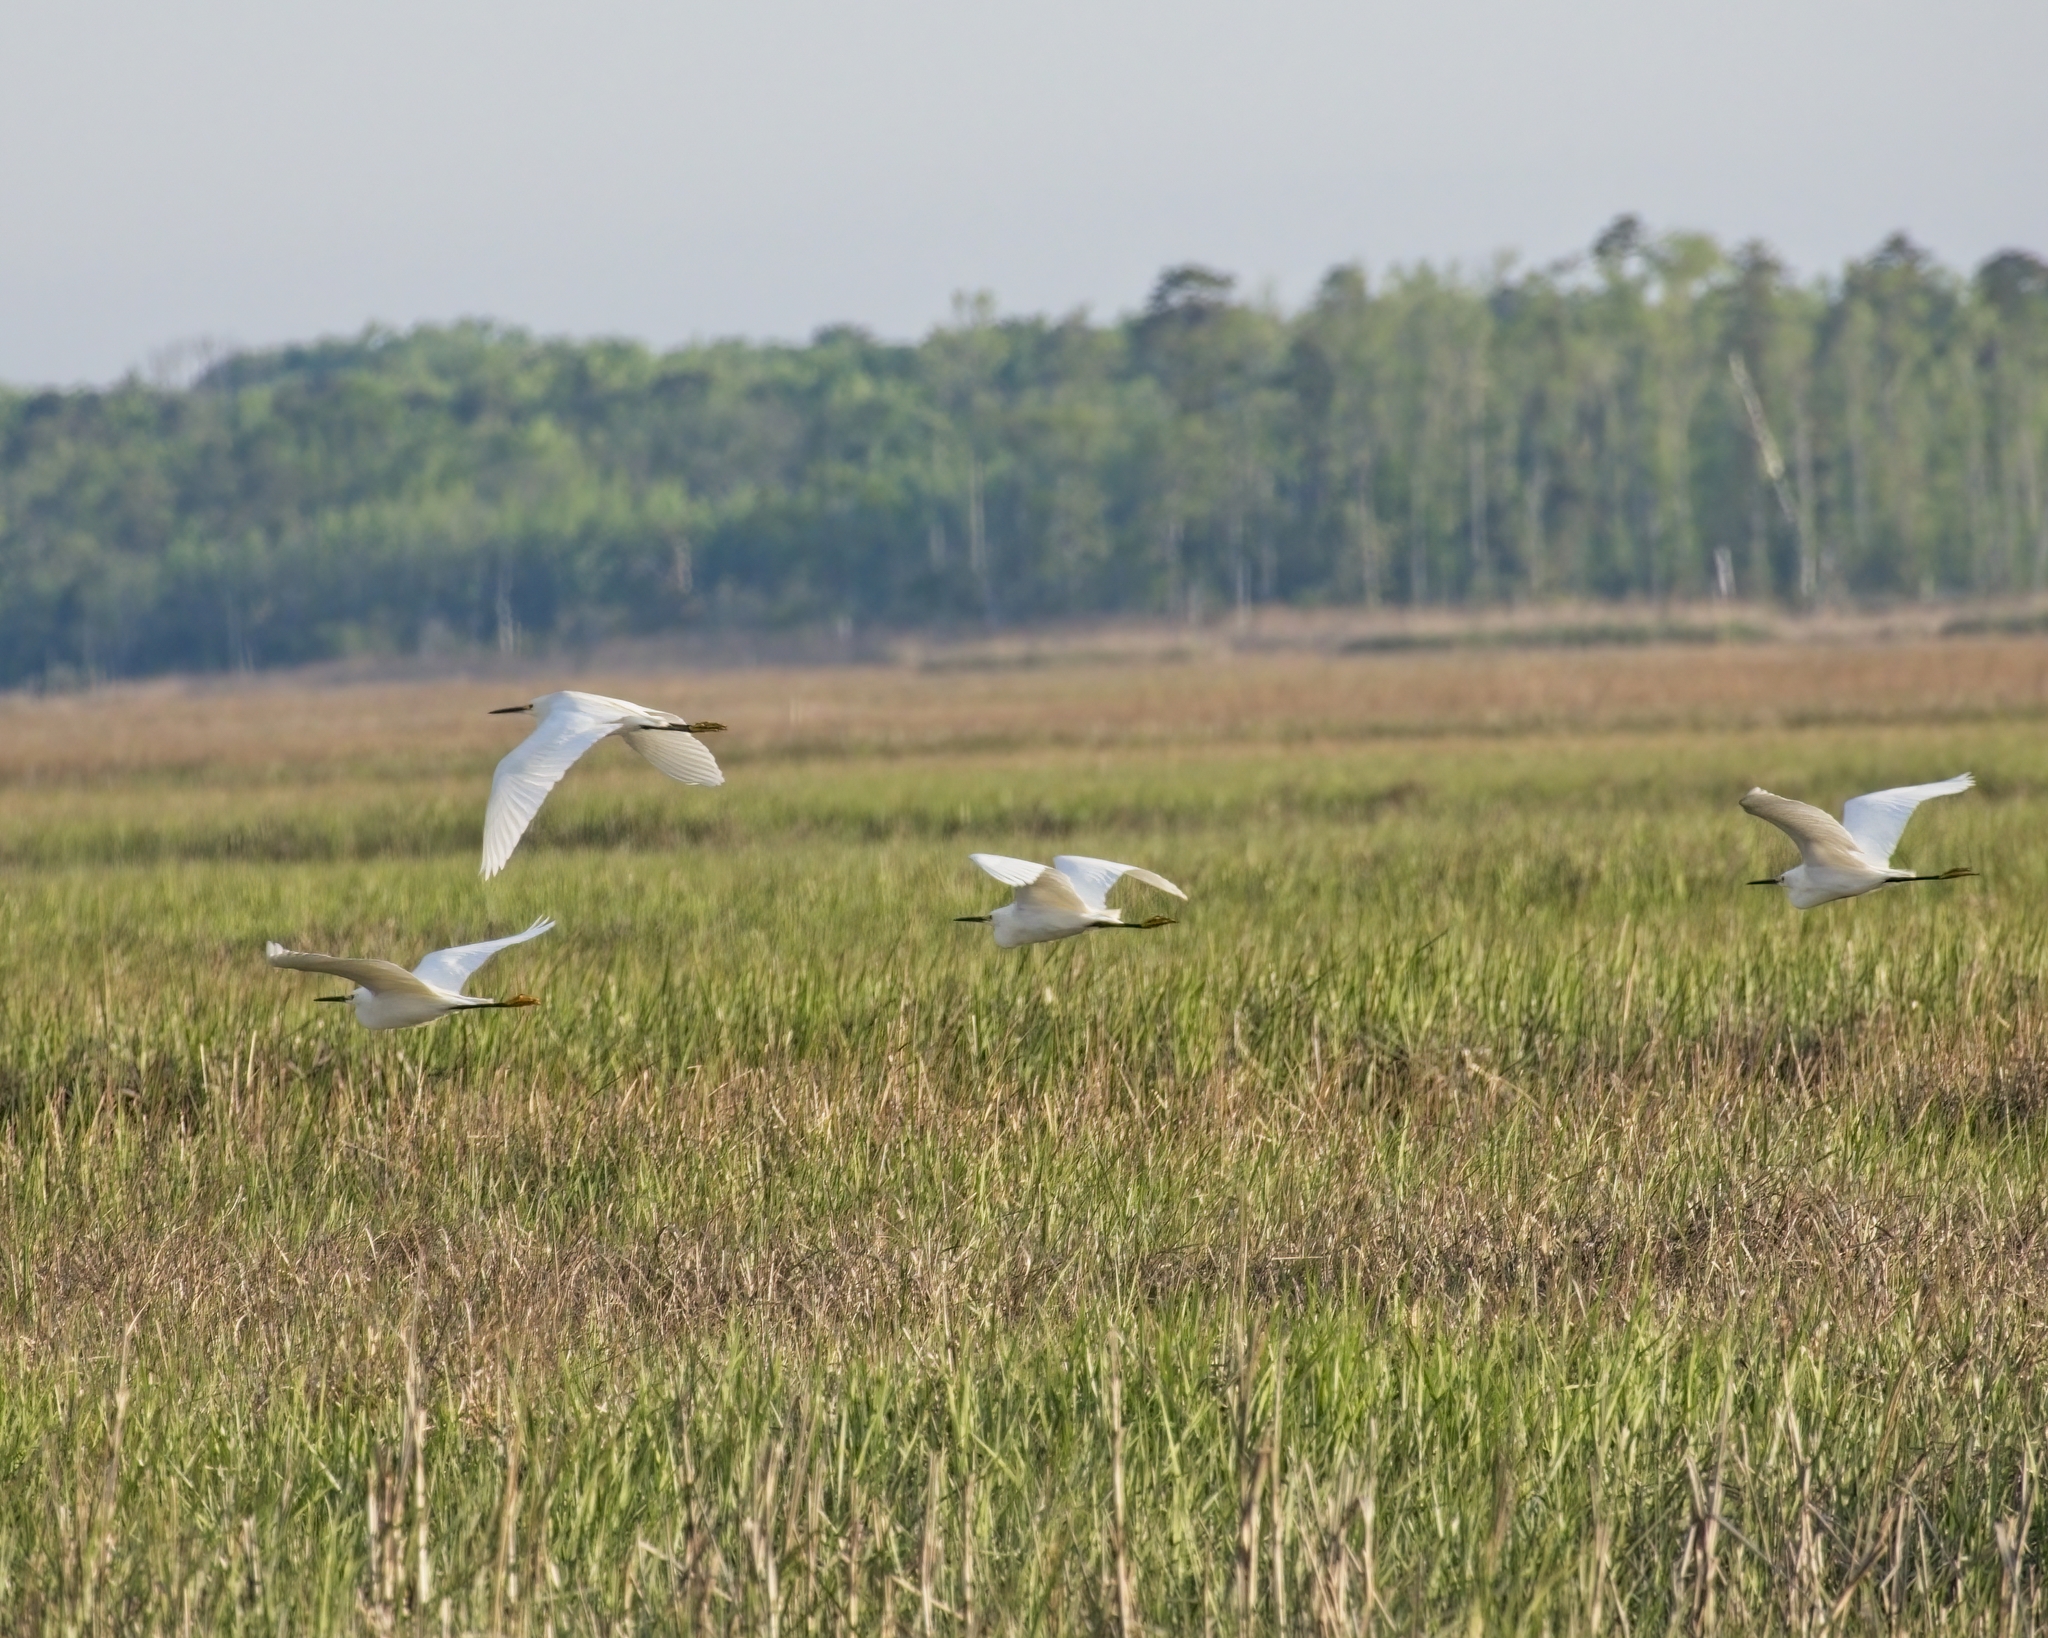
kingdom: Animalia
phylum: Chordata
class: Aves
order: Pelecaniformes
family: Ardeidae
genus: Egretta
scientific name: Egretta thula
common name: Snowy egret
